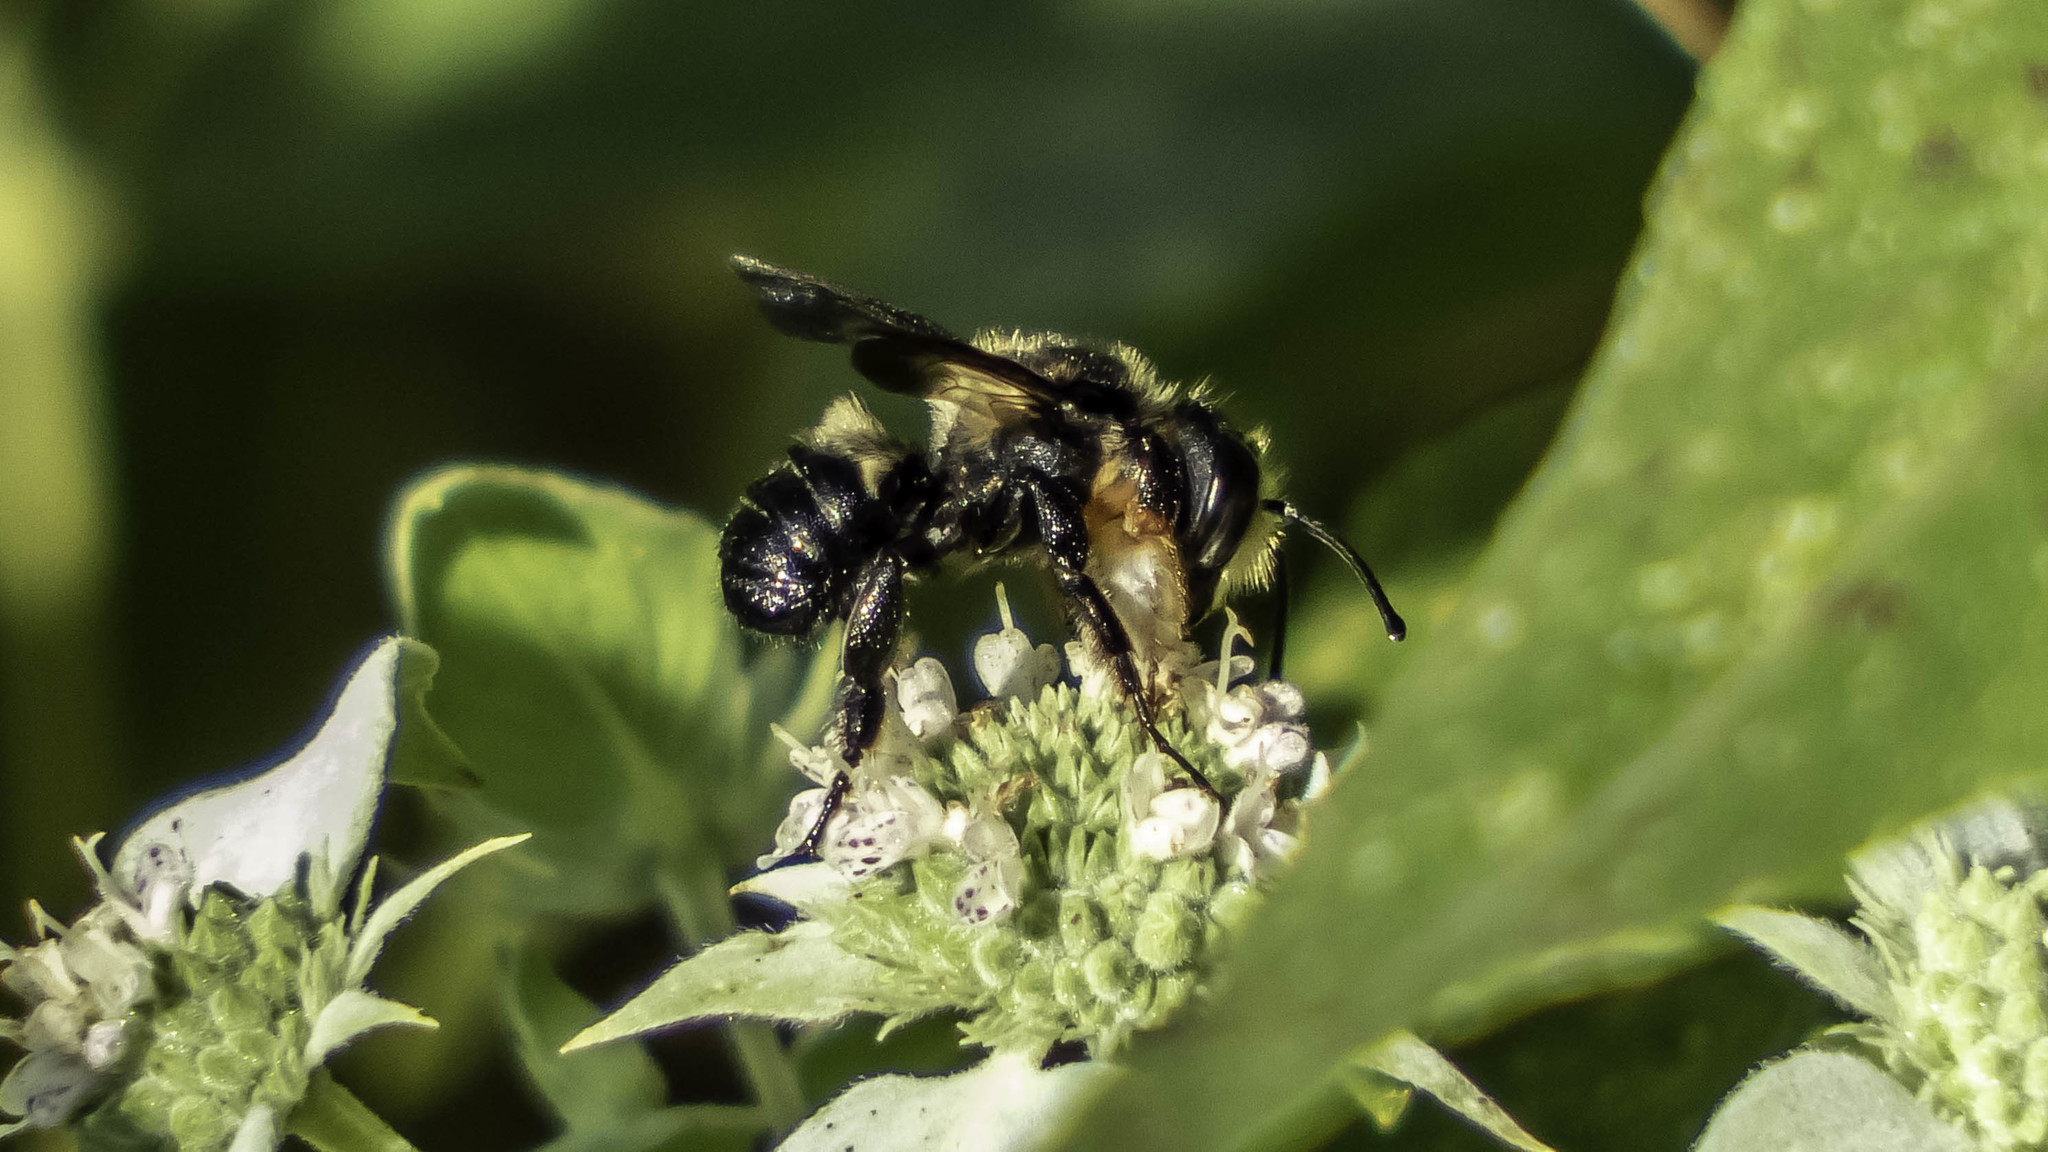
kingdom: Animalia
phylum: Arthropoda
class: Insecta
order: Hymenoptera
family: Megachilidae
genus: Megachile
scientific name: Megachile xylocopoides
